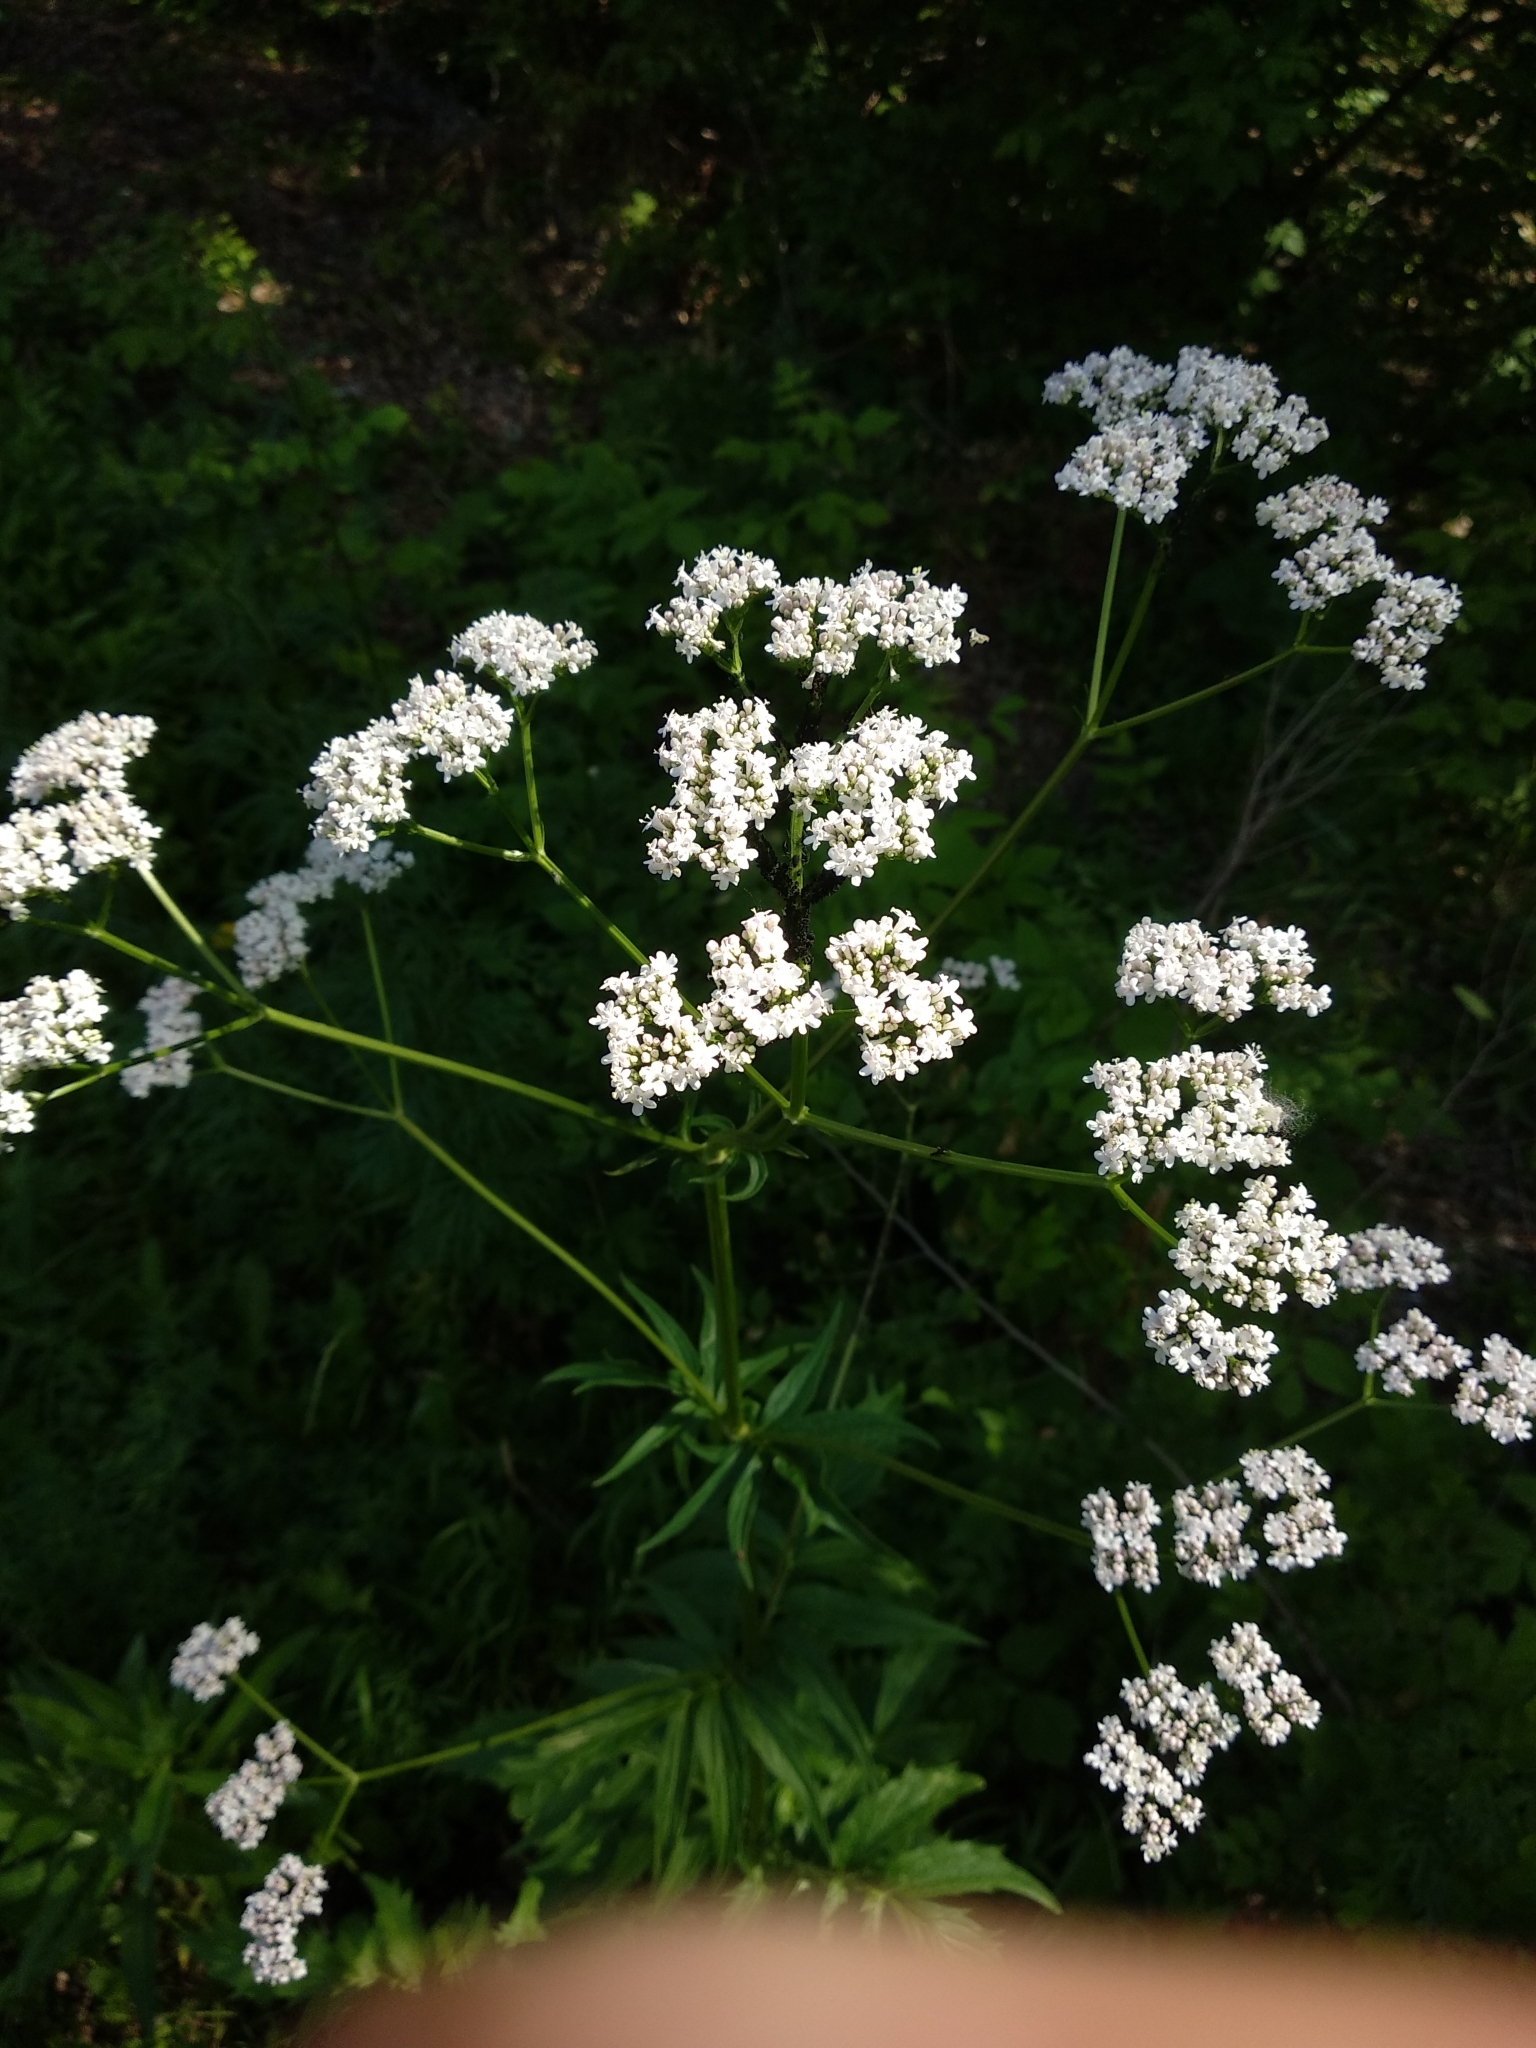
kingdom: Plantae
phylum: Tracheophyta
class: Magnoliopsida
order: Dipsacales
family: Caprifoliaceae
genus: Valeriana
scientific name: Valeriana wolgensis
